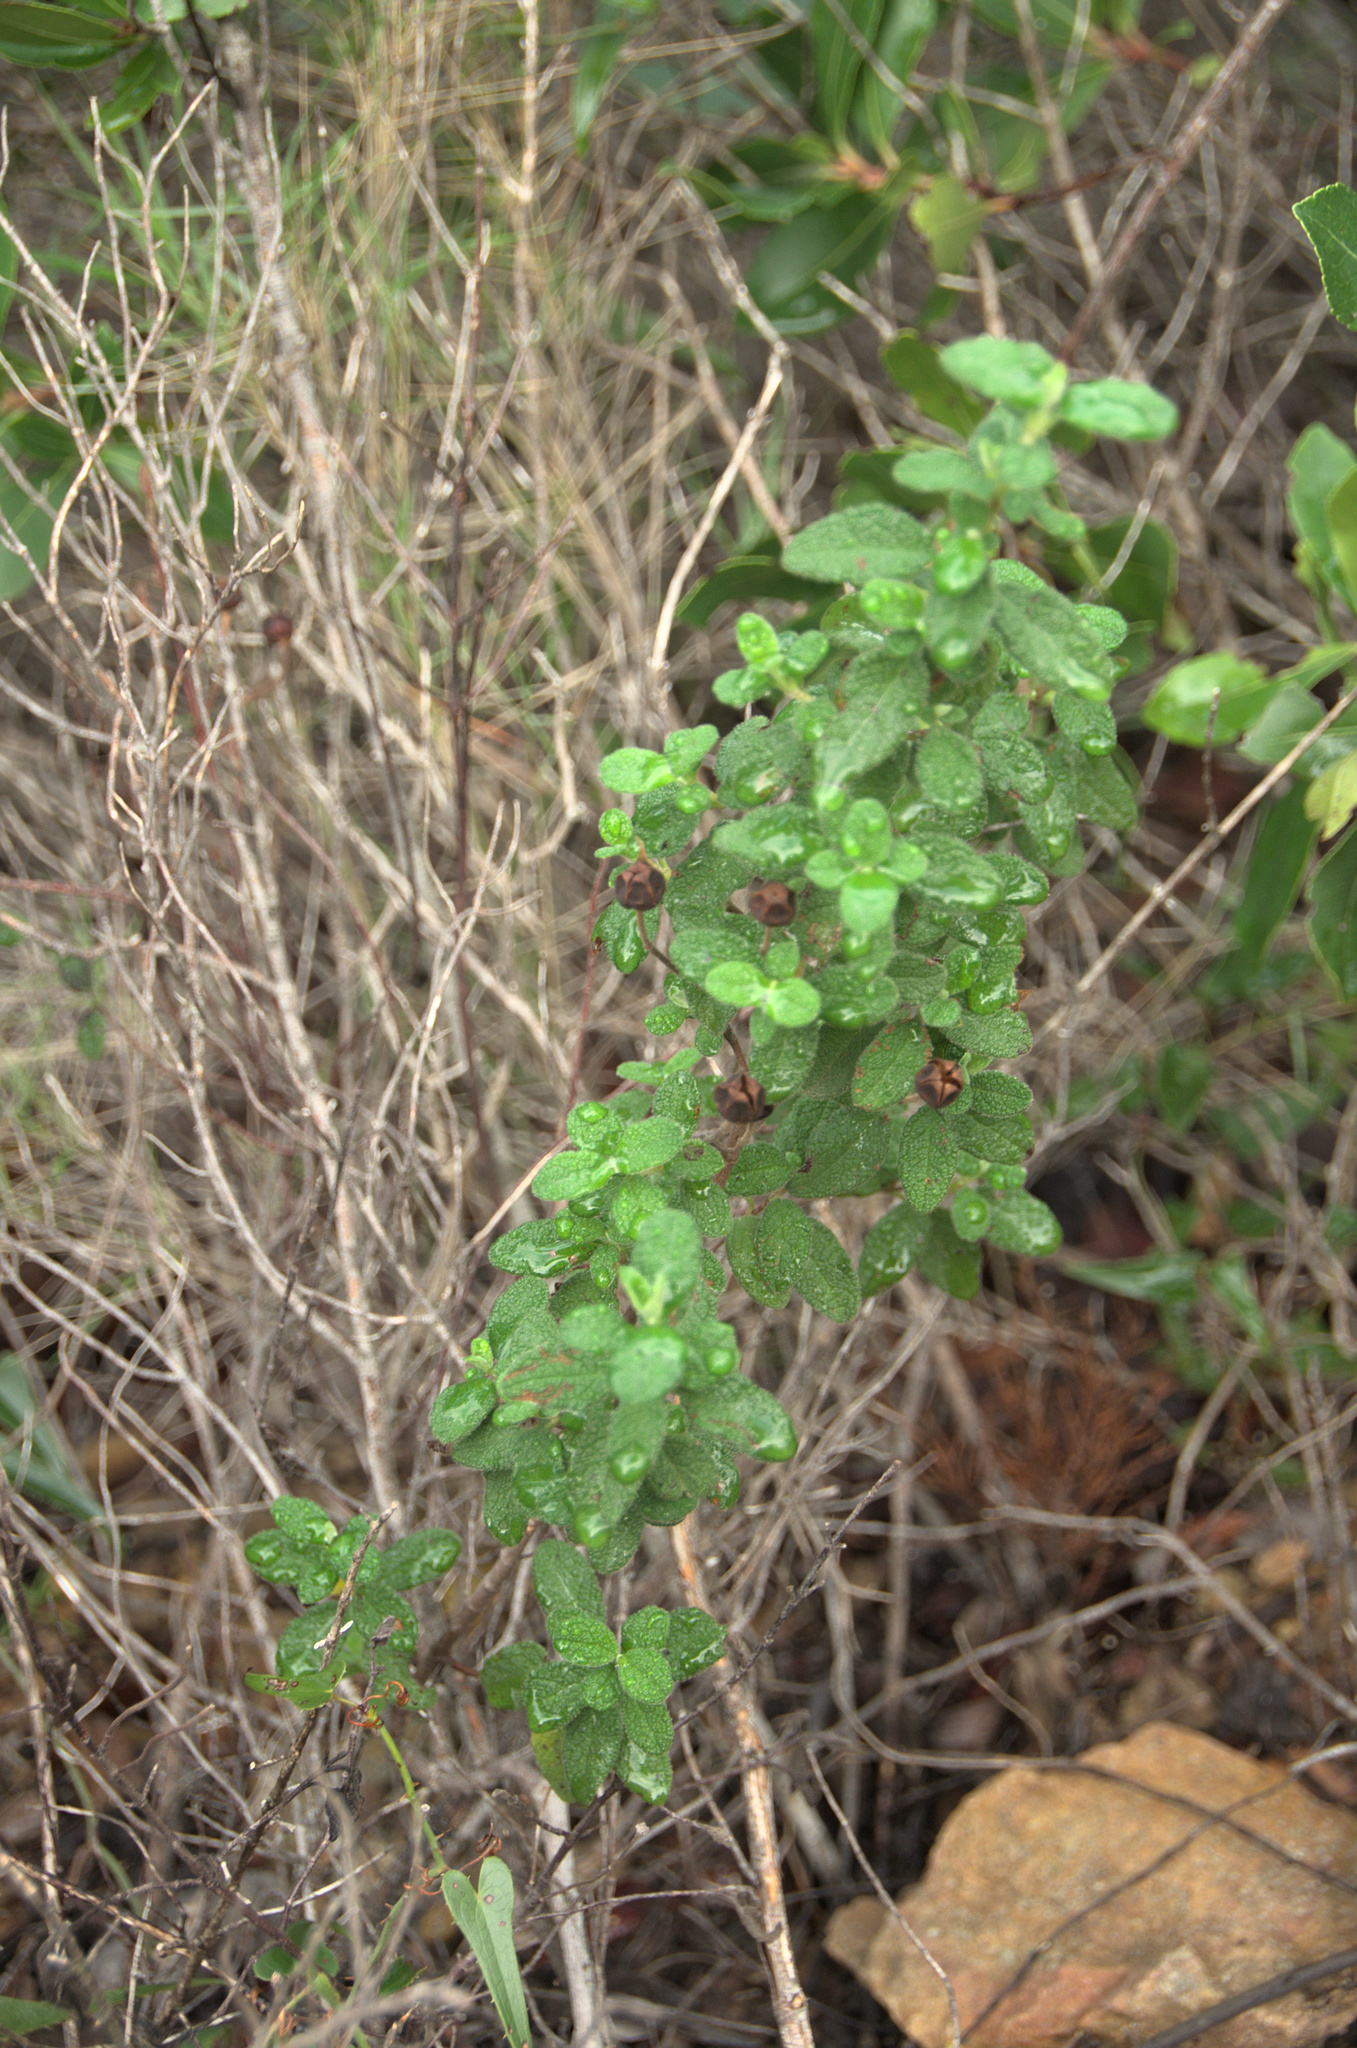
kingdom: Plantae
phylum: Tracheophyta
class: Magnoliopsida
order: Malvales
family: Cistaceae
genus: Cistus
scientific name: Cistus salviifolius
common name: Salvia cistus
